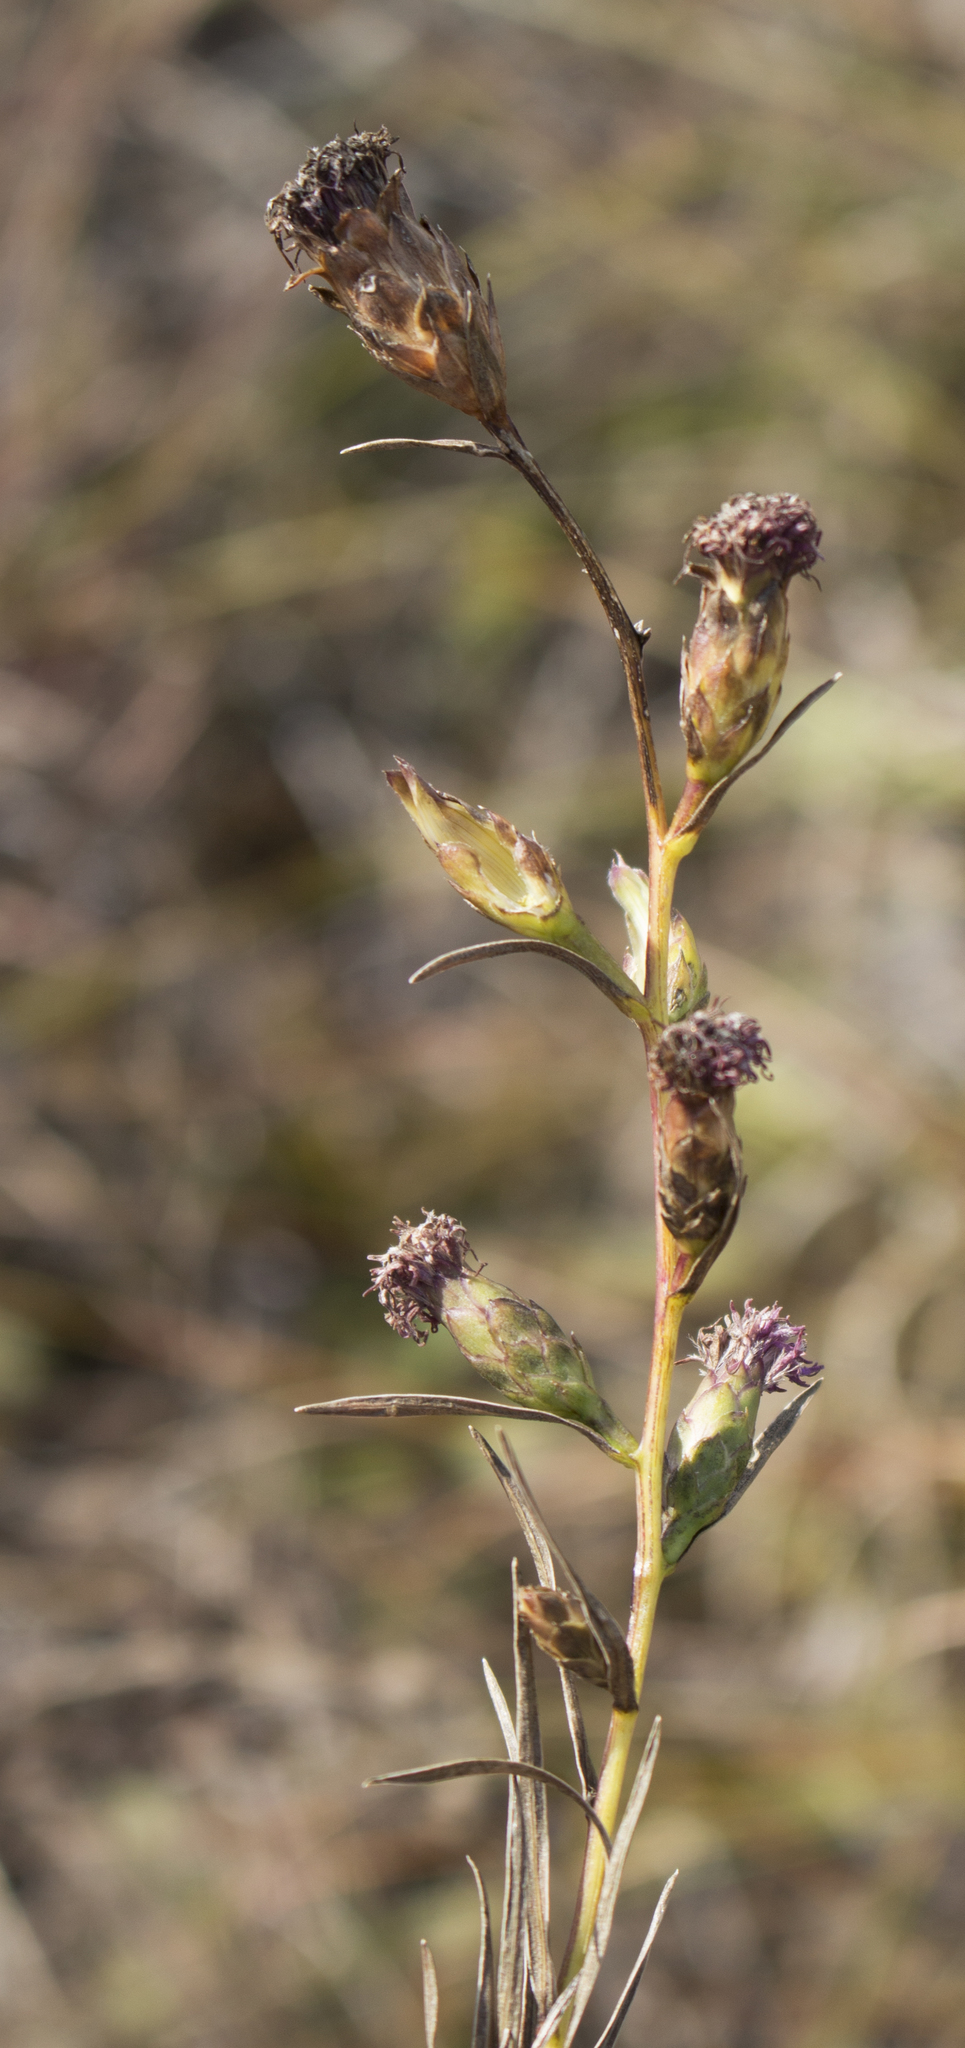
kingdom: Plantae
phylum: Tracheophyta
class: Magnoliopsida
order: Asterales
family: Asteraceae
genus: Liatris
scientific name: Liatris cylindracea
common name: Few-head blazingstar
